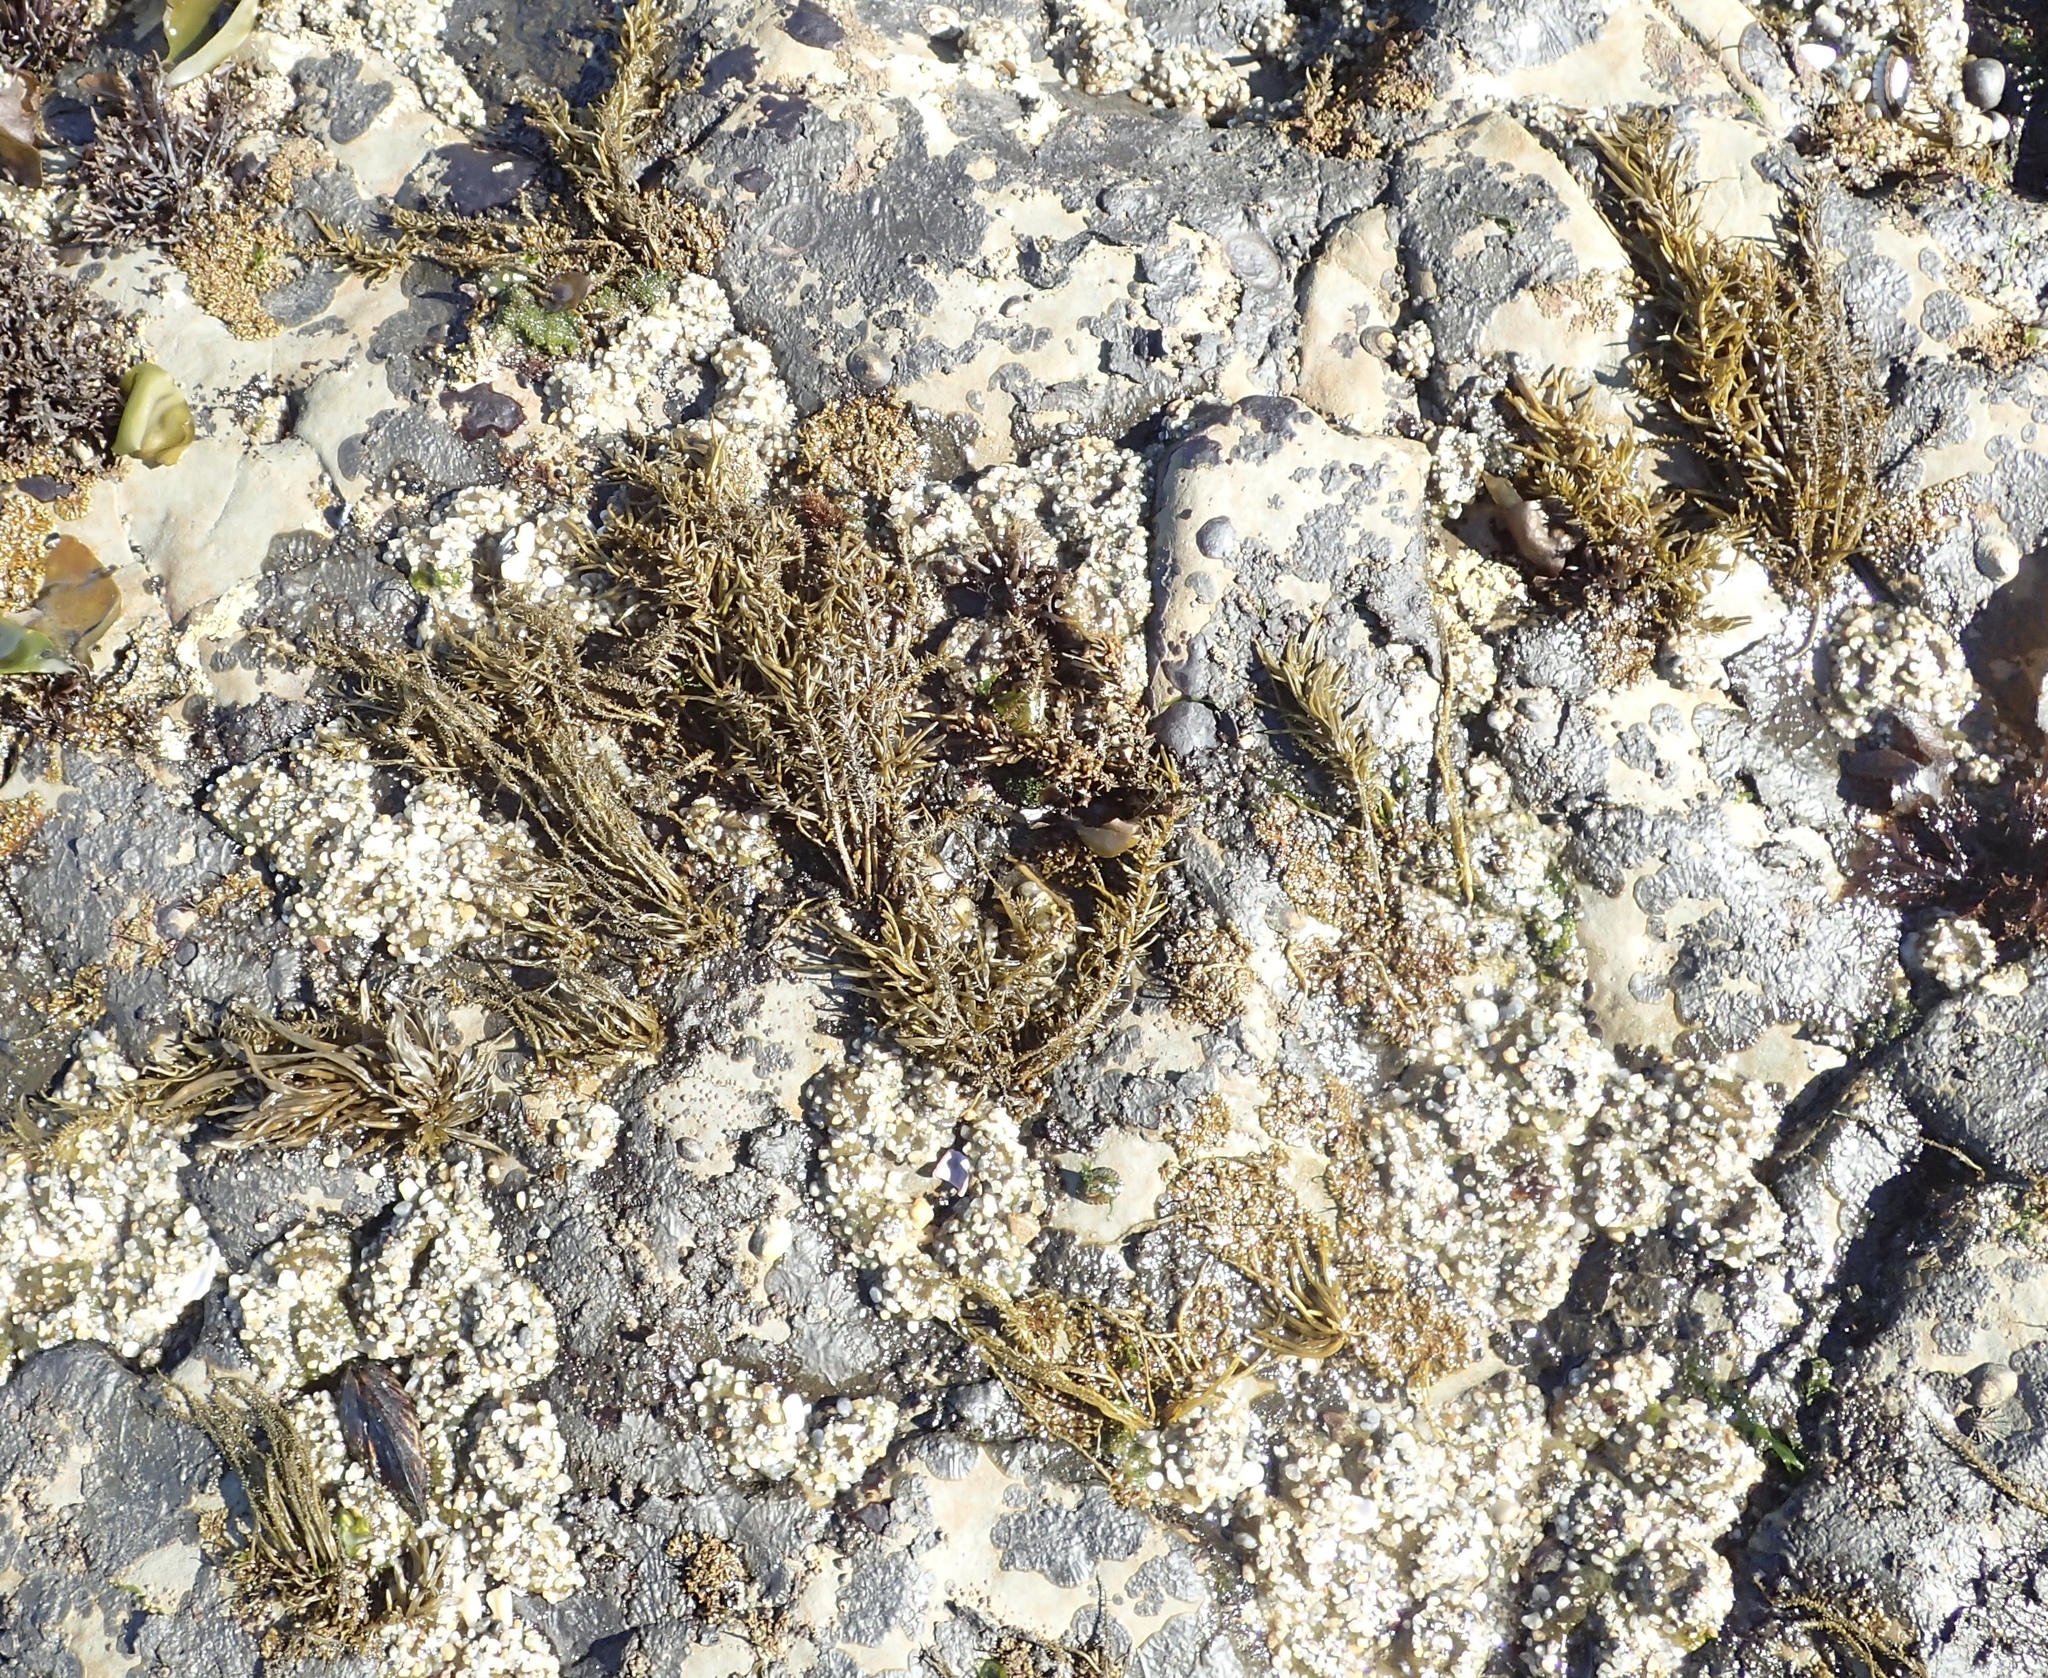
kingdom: Chromista
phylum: Ochrophyta
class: Phaeophyceae
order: Scytosiphonales
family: Scytosiphonaceae
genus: Analipus
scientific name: Analipus japonicus
